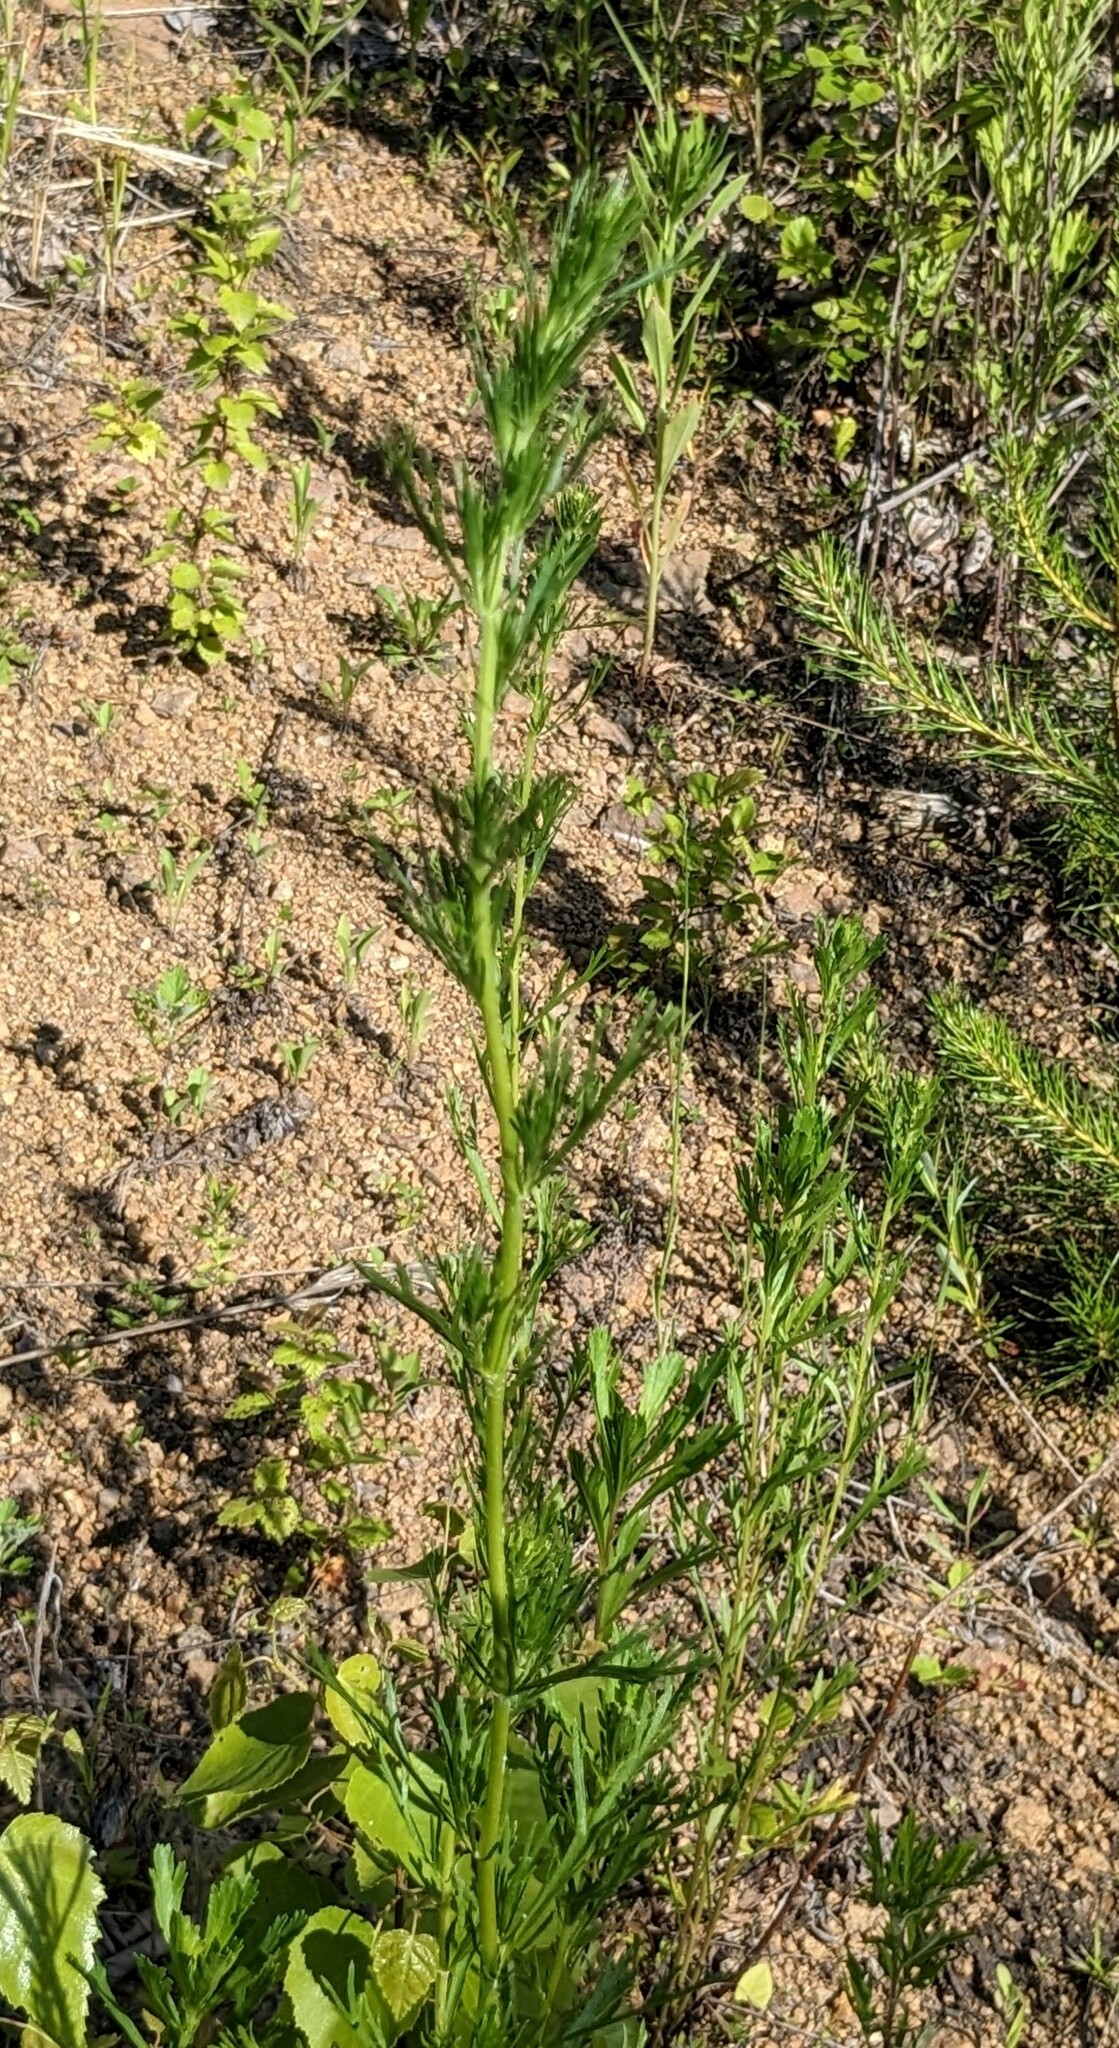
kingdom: Plantae
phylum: Tracheophyta
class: Magnoliopsida
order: Asterales
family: Asteraceae
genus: Artemisia
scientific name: Artemisia manshurica
